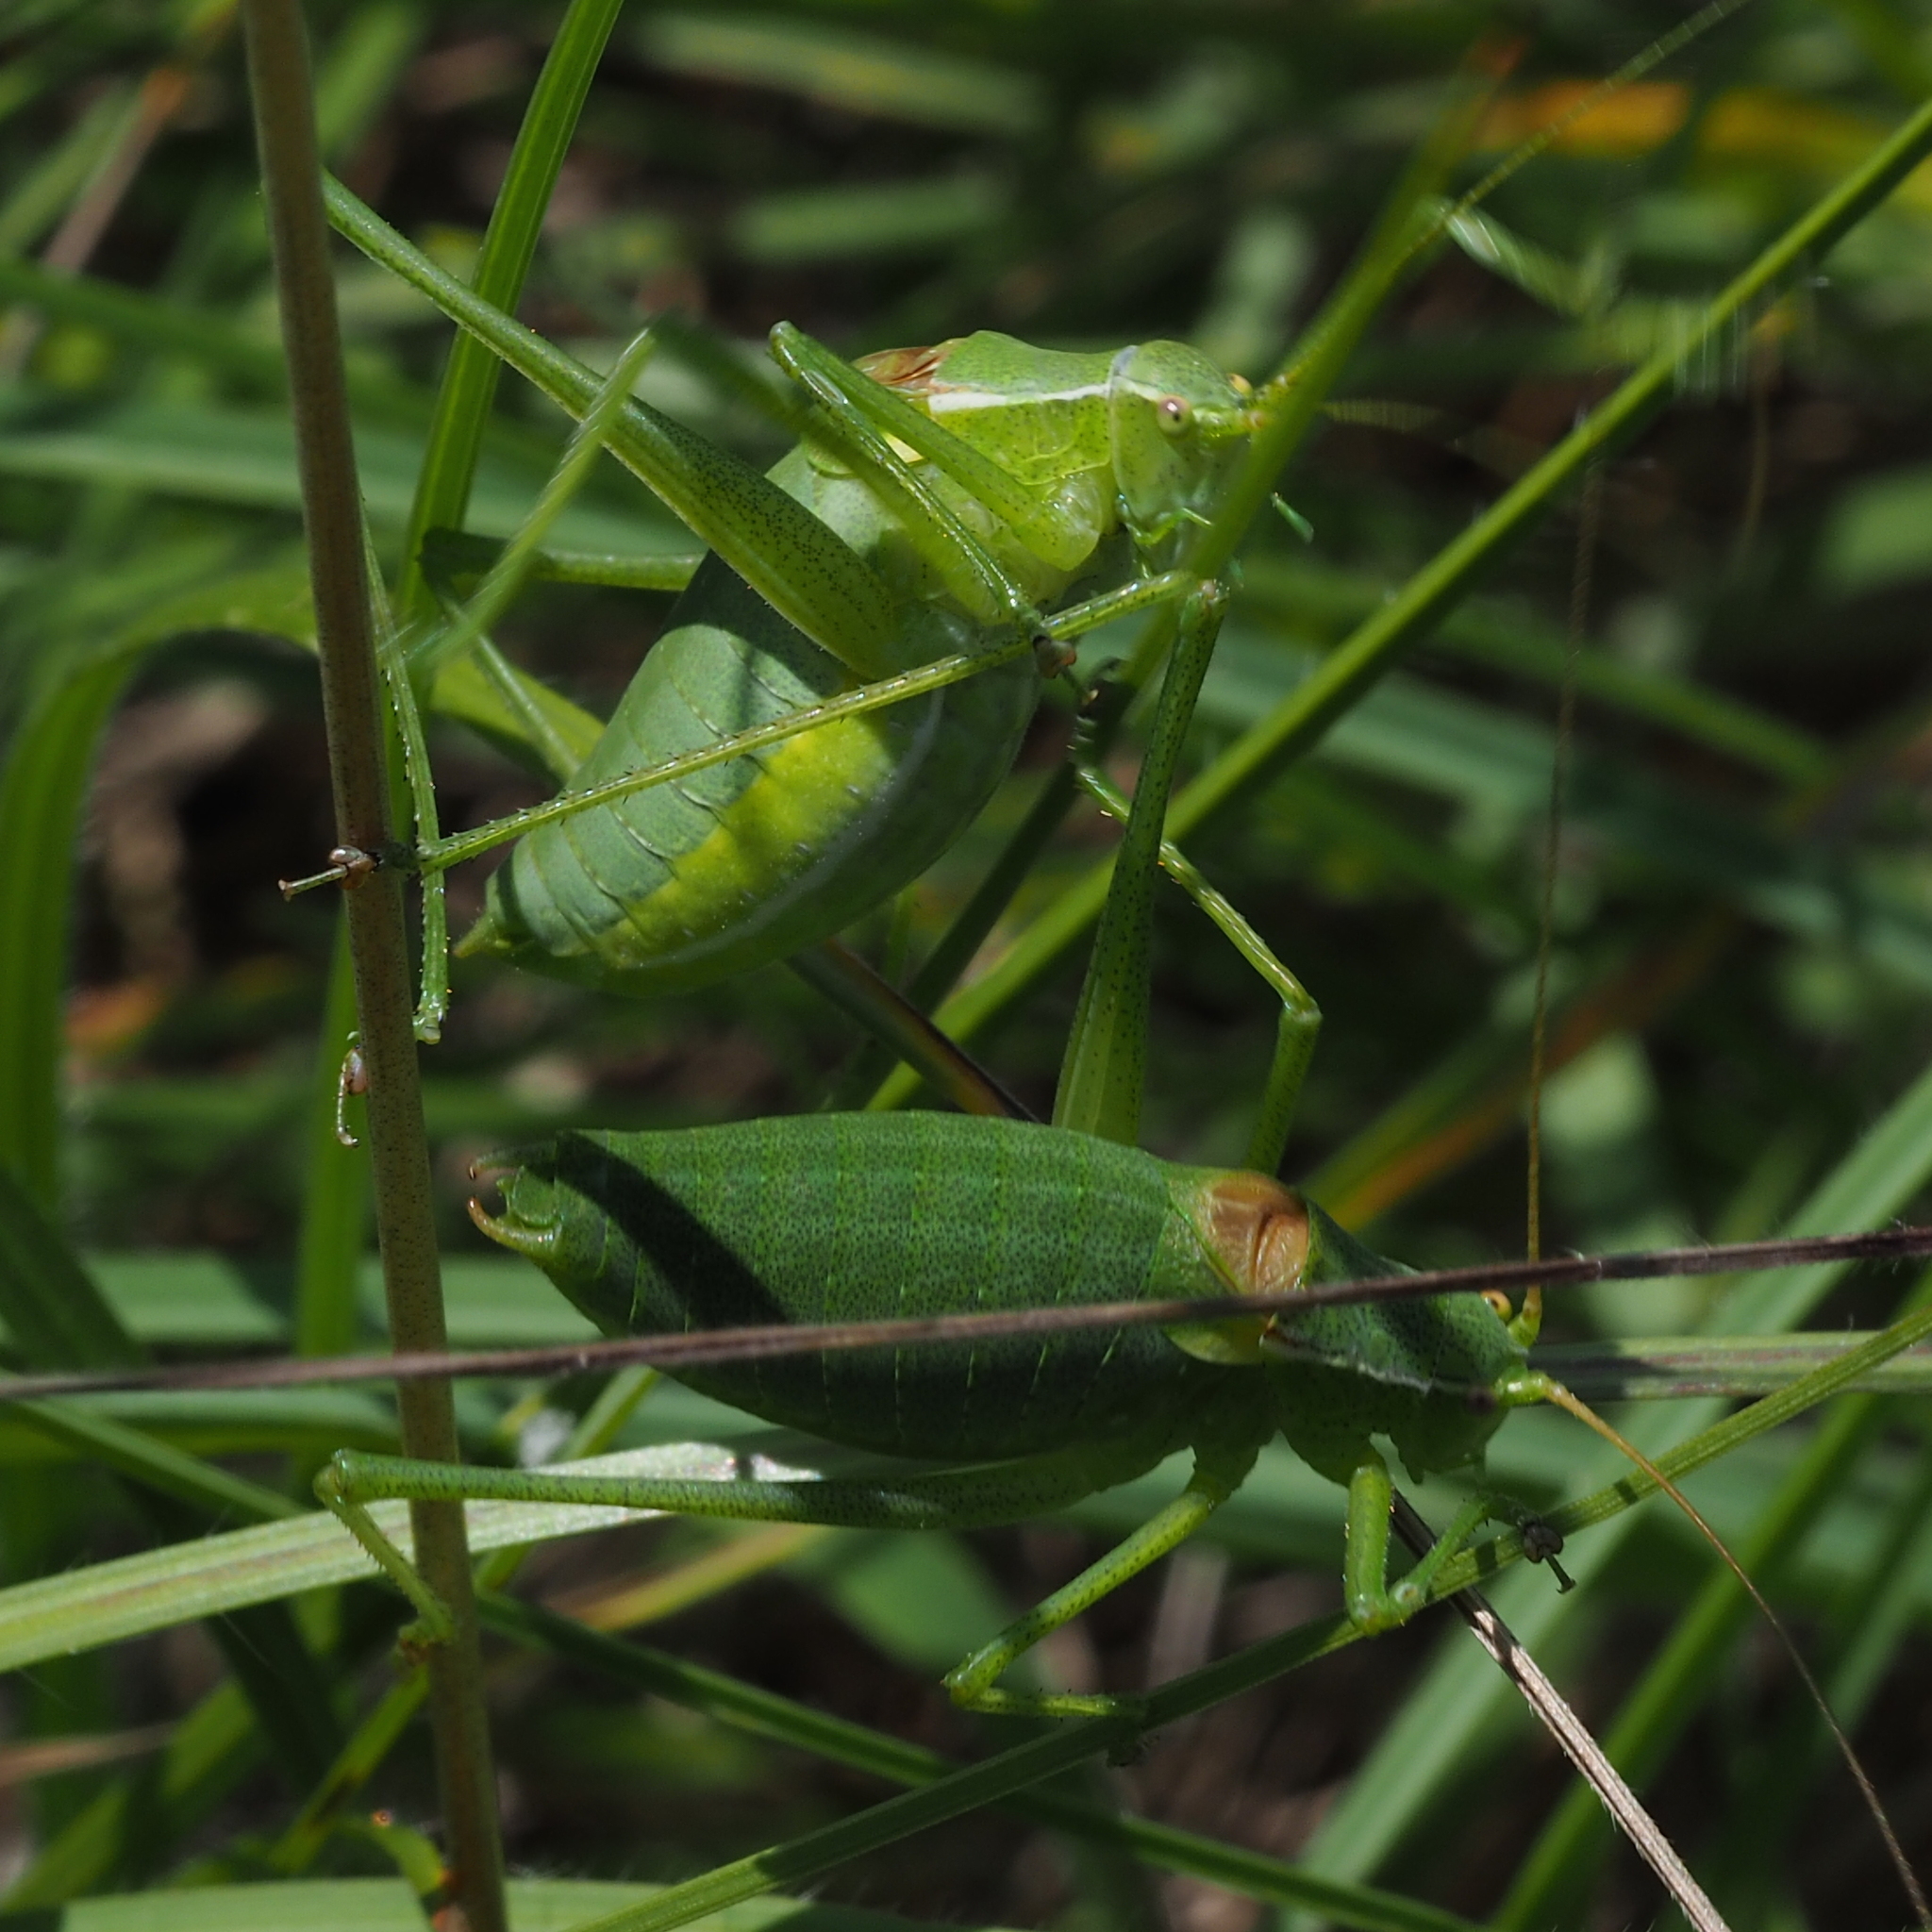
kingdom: Animalia
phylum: Arthropoda
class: Insecta
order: Orthoptera
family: Tettigoniidae
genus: Isophya
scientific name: Isophya camptoxypha
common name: Curve-tailed plump bush-cricket
